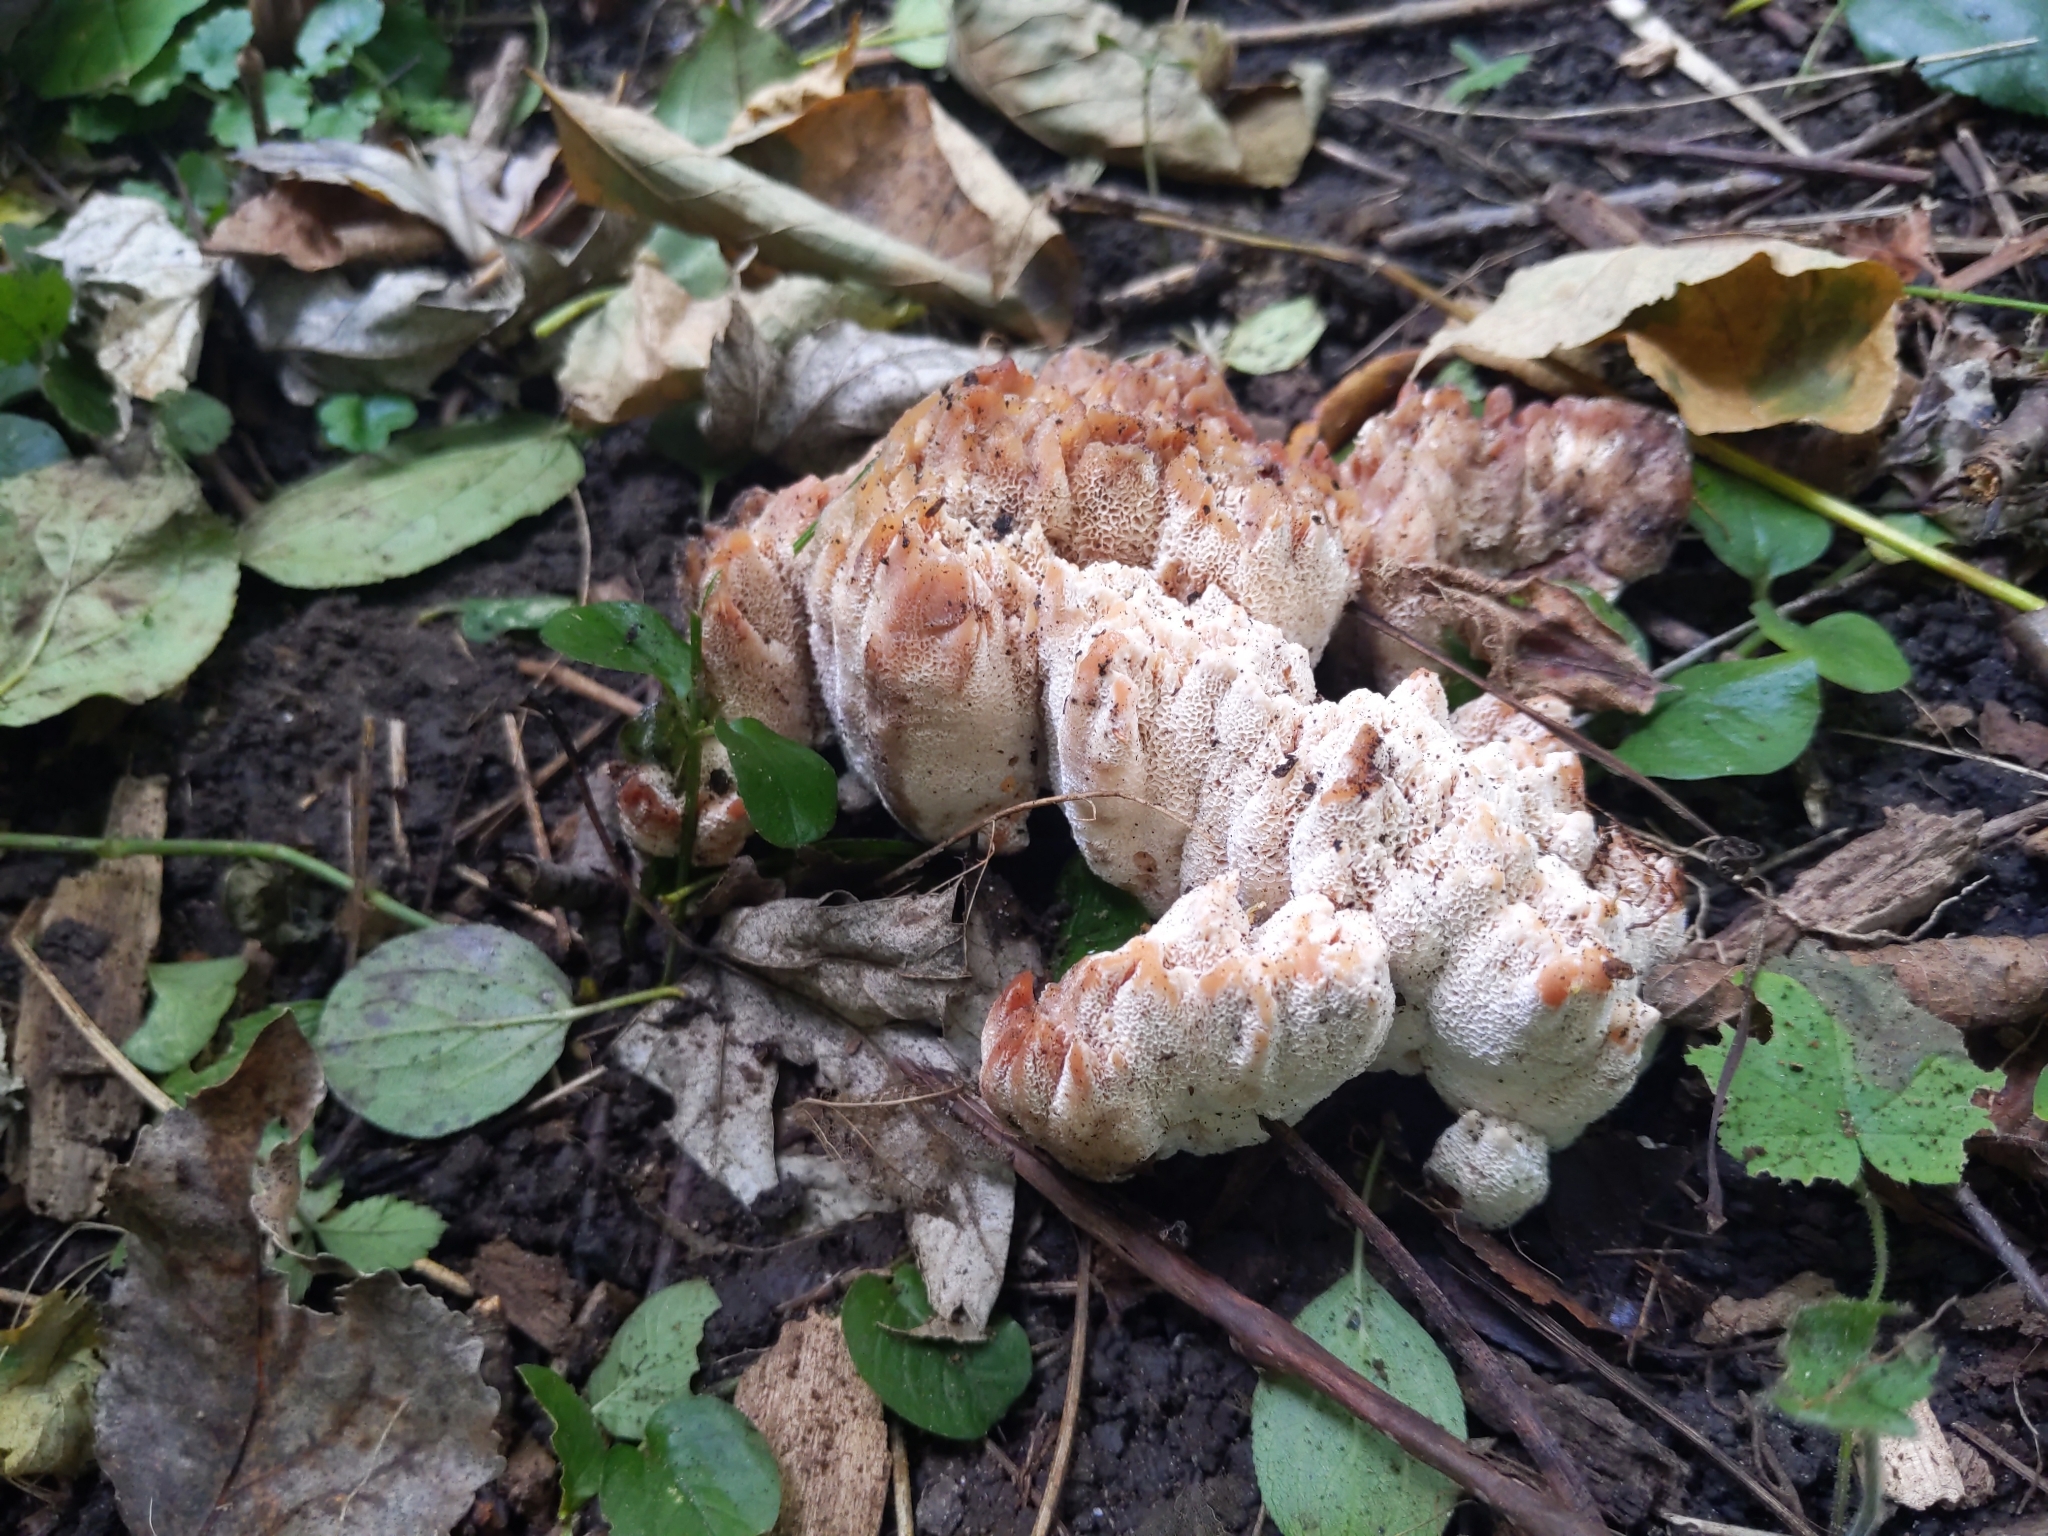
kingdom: Fungi
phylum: Basidiomycota
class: Agaricomycetes
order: Polyporales
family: Podoscyphaceae
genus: Abortiporus
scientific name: Abortiporus biennis
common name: Blushing rosette
